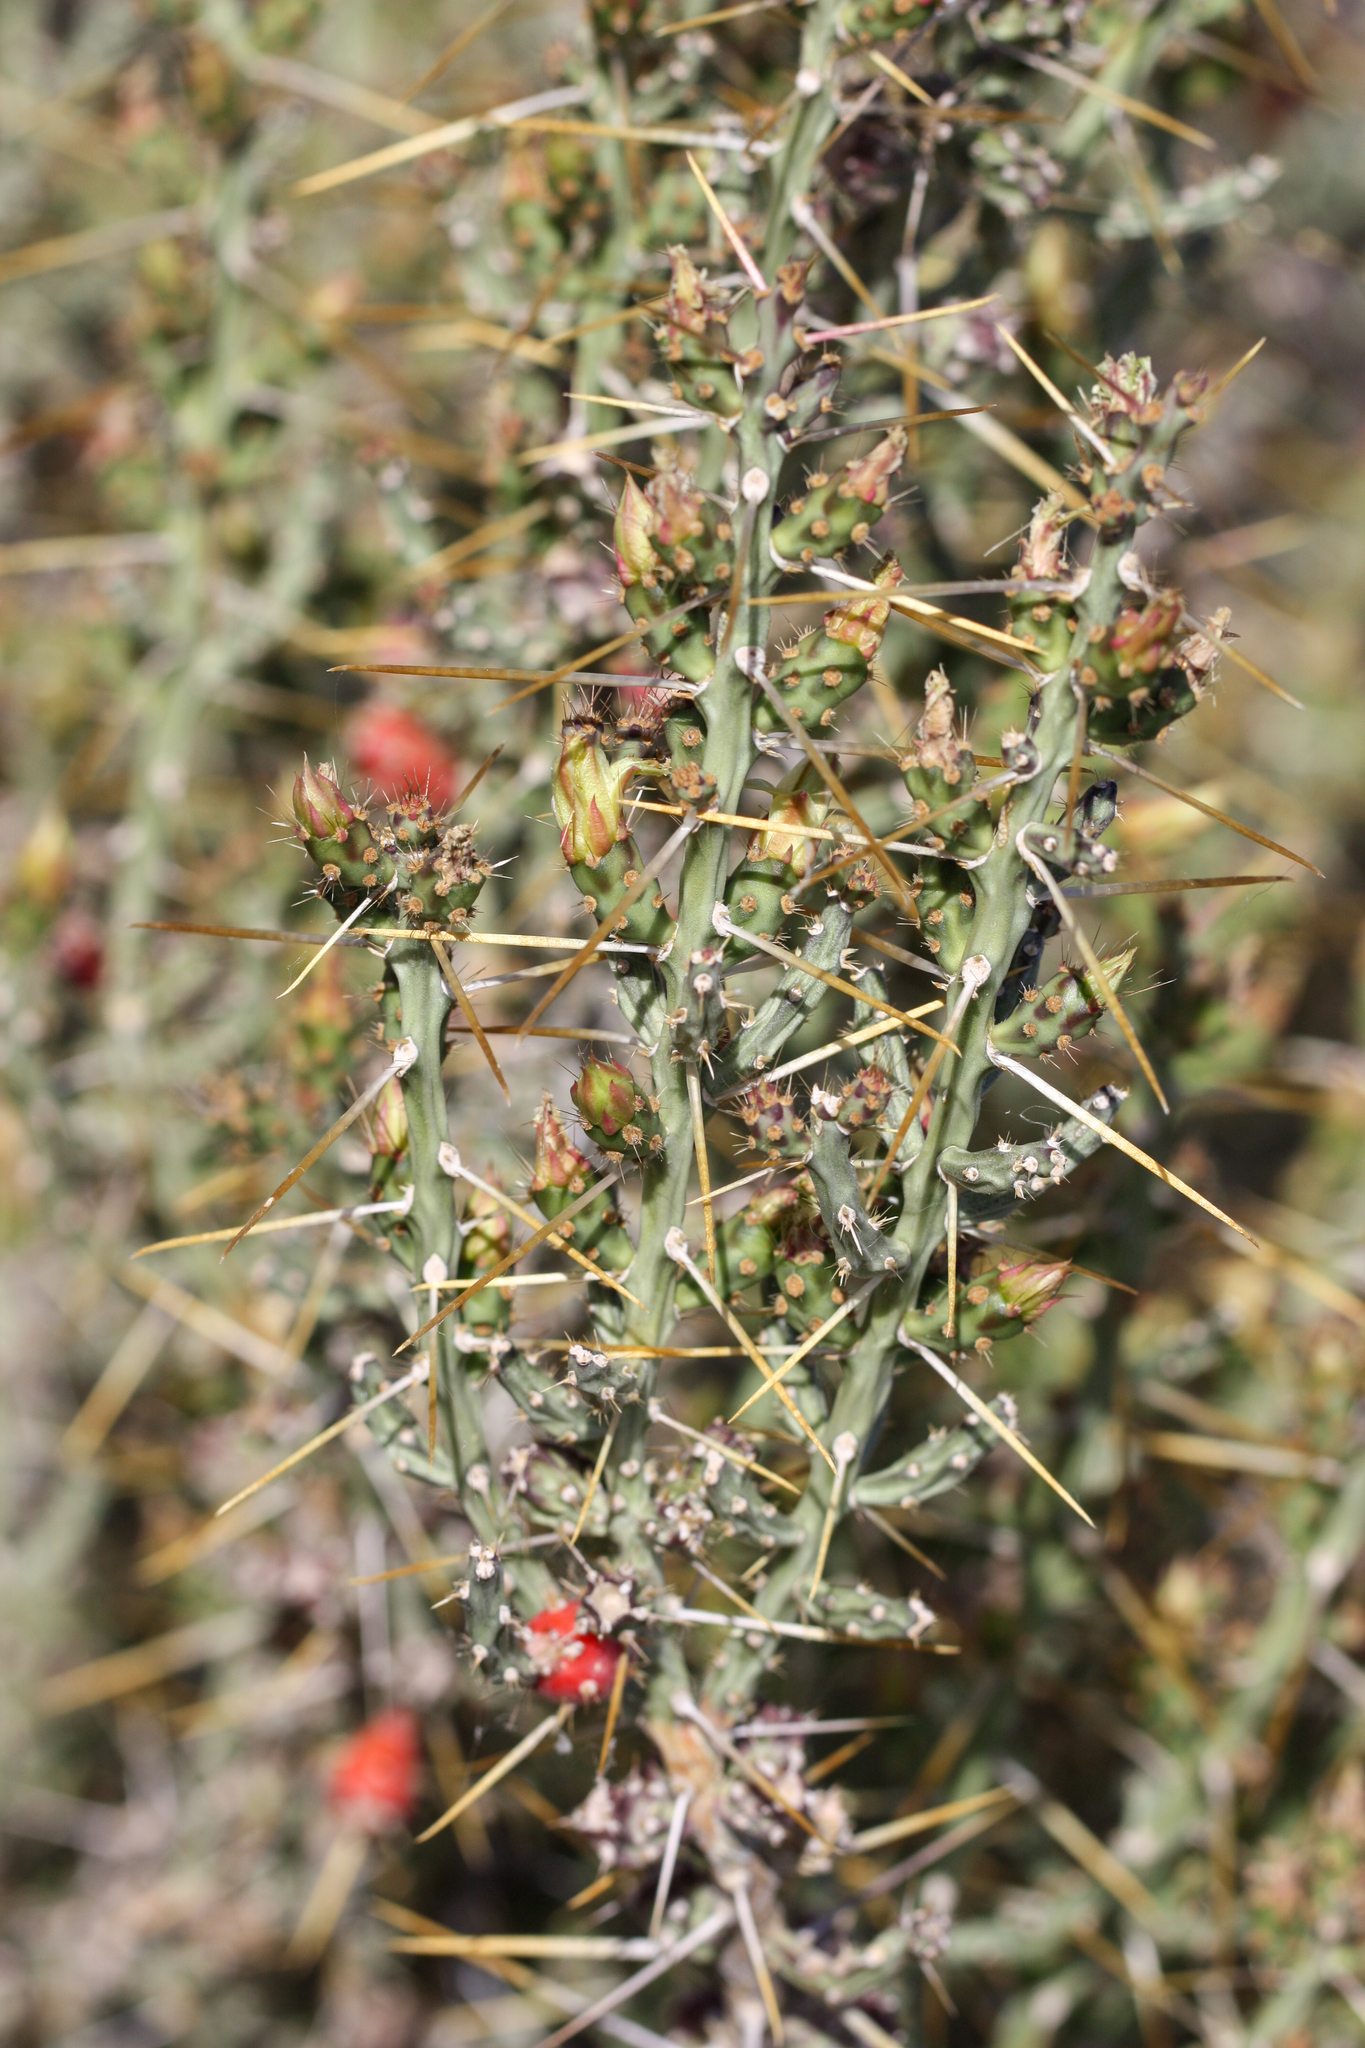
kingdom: Plantae
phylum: Tracheophyta
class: Magnoliopsida
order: Caryophyllales
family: Cactaceae
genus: Cylindropuntia
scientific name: Cylindropuntia leptocaulis
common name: Christmas cactus
